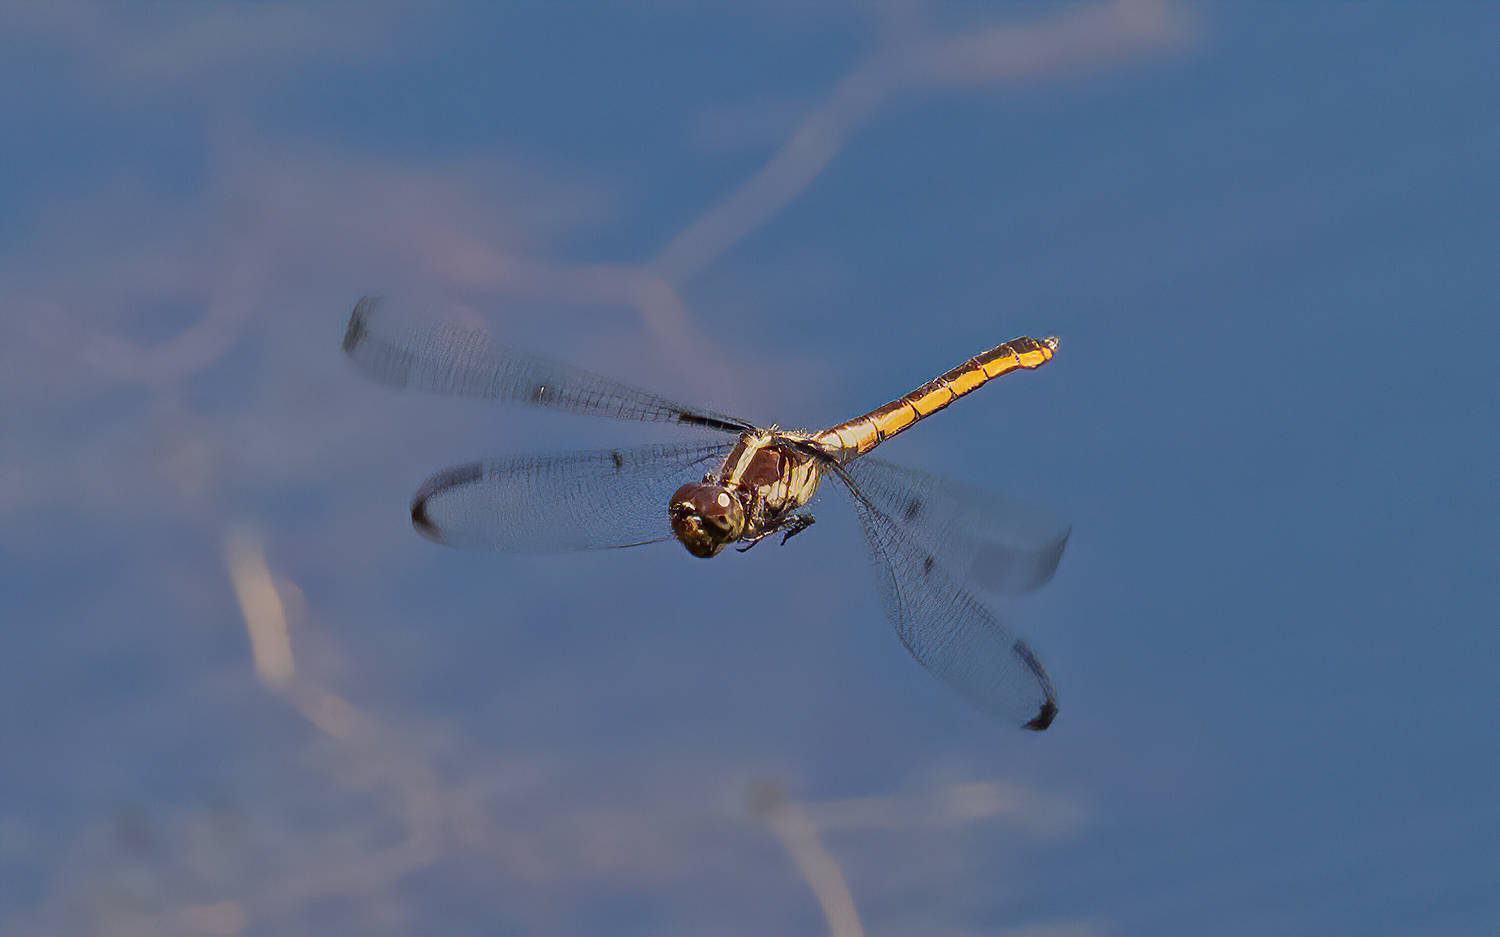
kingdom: Animalia
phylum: Arthropoda
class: Insecta
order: Odonata
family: Libellulidae
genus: Libellula
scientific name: Libellula incesta
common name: Slaty skimmer
